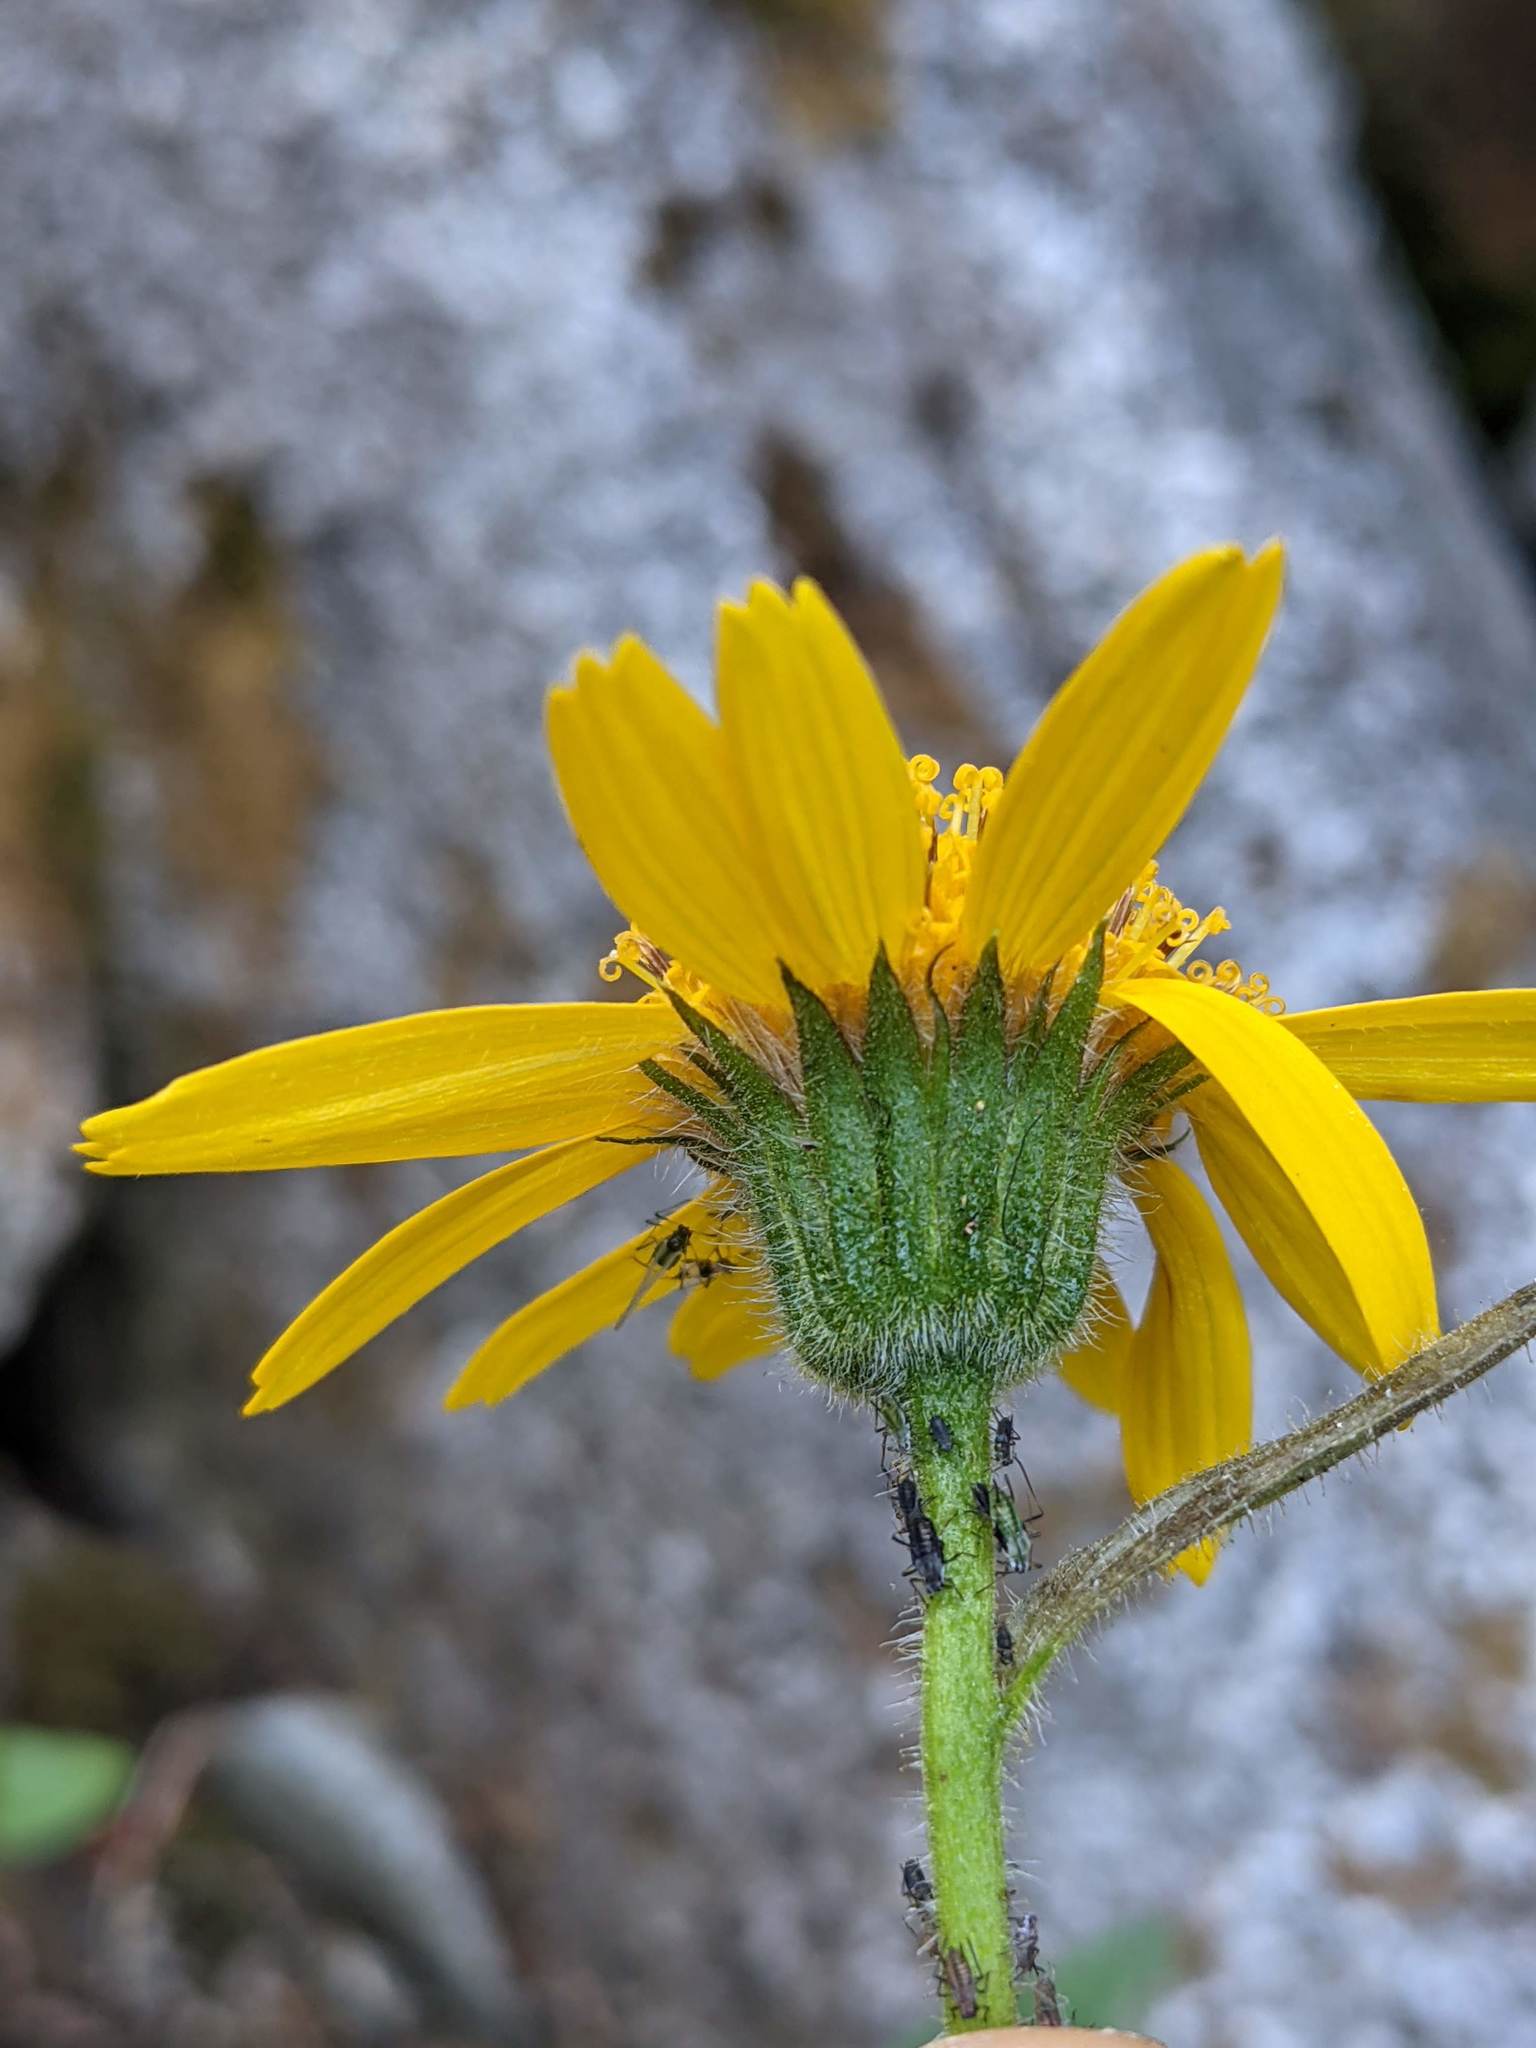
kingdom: Plantae
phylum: Tracheophyta
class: Magnoliopsida
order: Asterales
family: Asteraceae
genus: Arnica
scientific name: Arnica lanceolata
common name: Lance-leaved arnica
